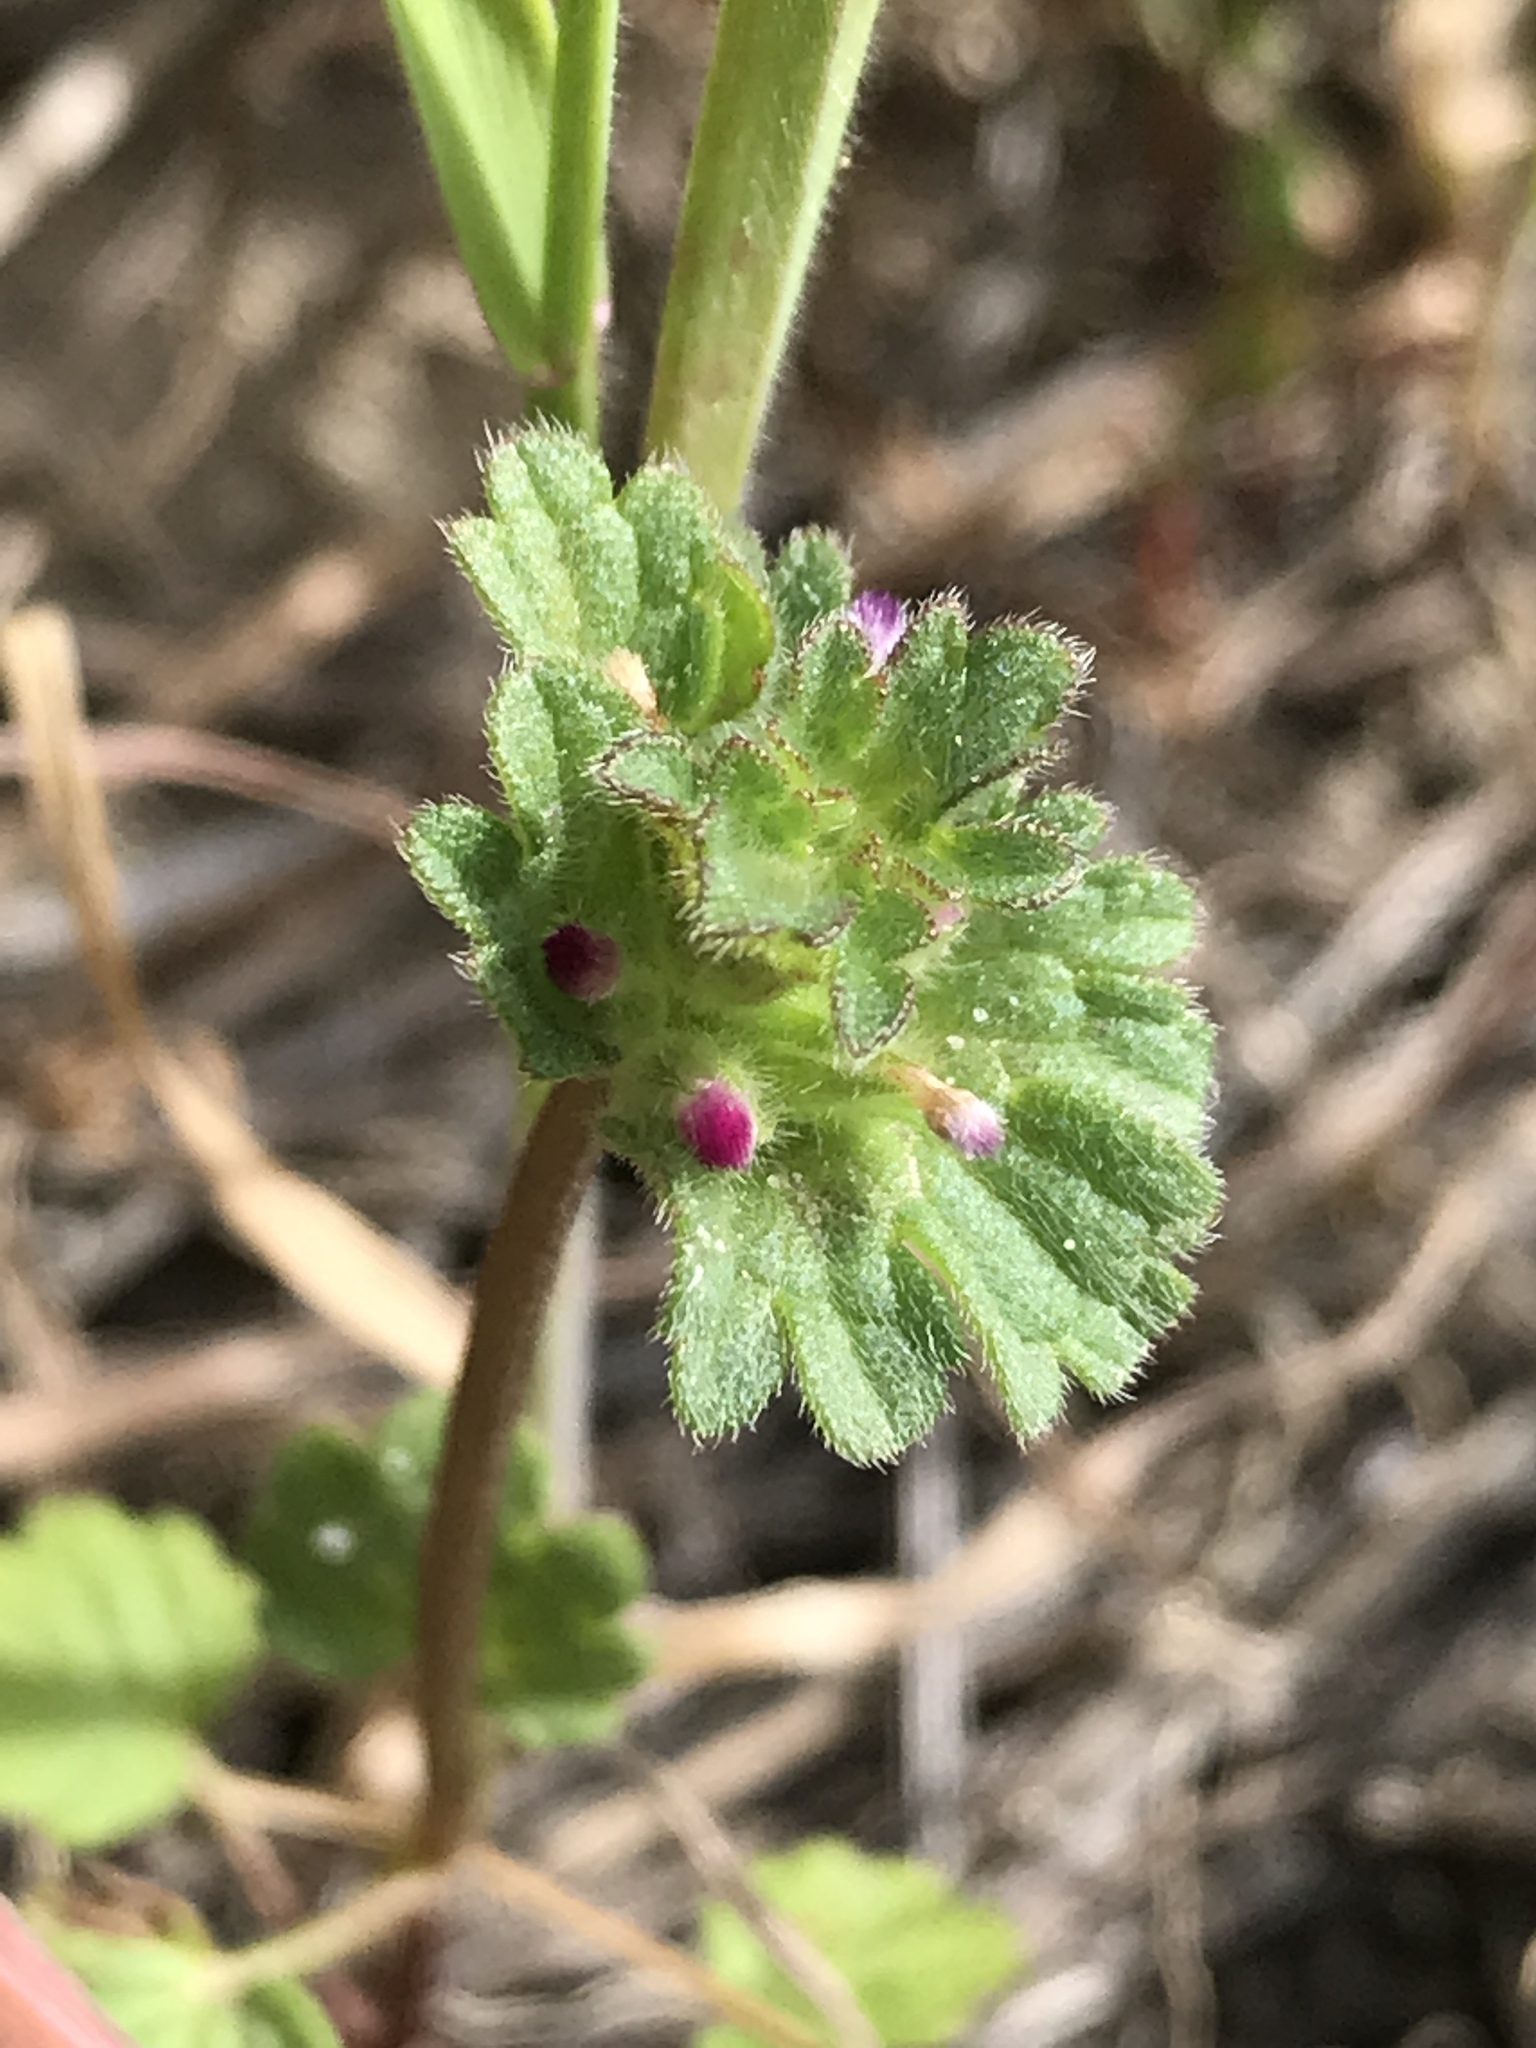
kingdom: Plantae
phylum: Tracheophyta
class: Magnoliopsida
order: Lamiales
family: Lamiaceae
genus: Lamium
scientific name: Lamium amplexicaule
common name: Henbit dead-nettle
